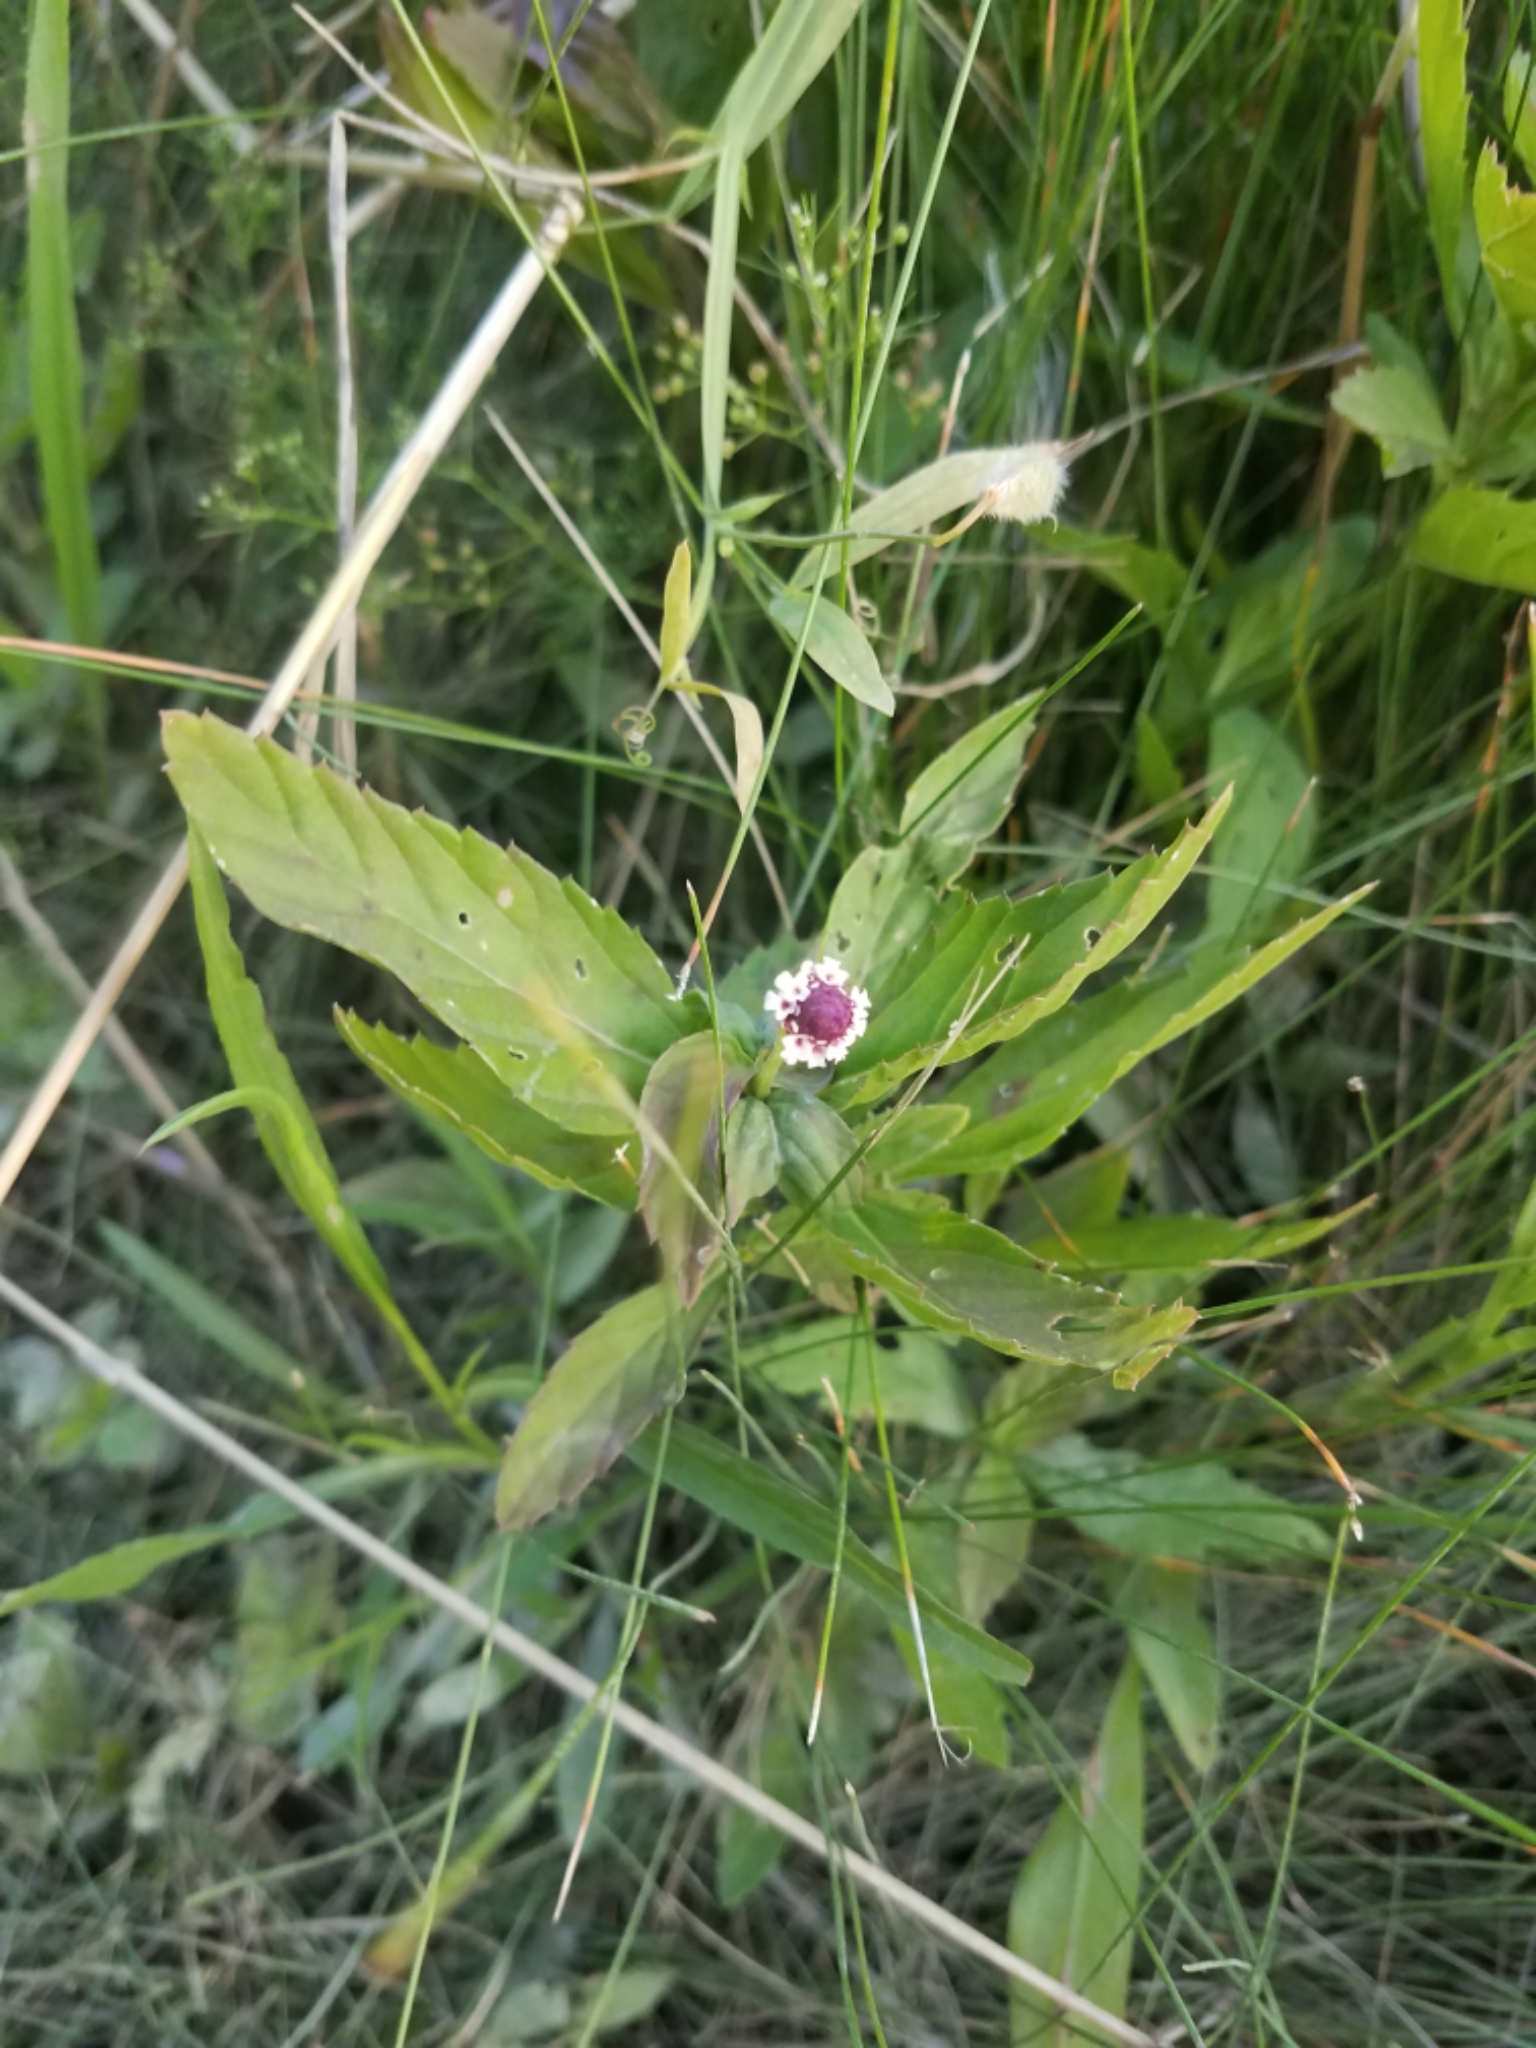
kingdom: Plantae
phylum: Tracheophyta
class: Magnoliopsida
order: Lamiales
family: Verbenaceae
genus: Phyla
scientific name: Phyla lanceolata
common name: Northern fogfruit
